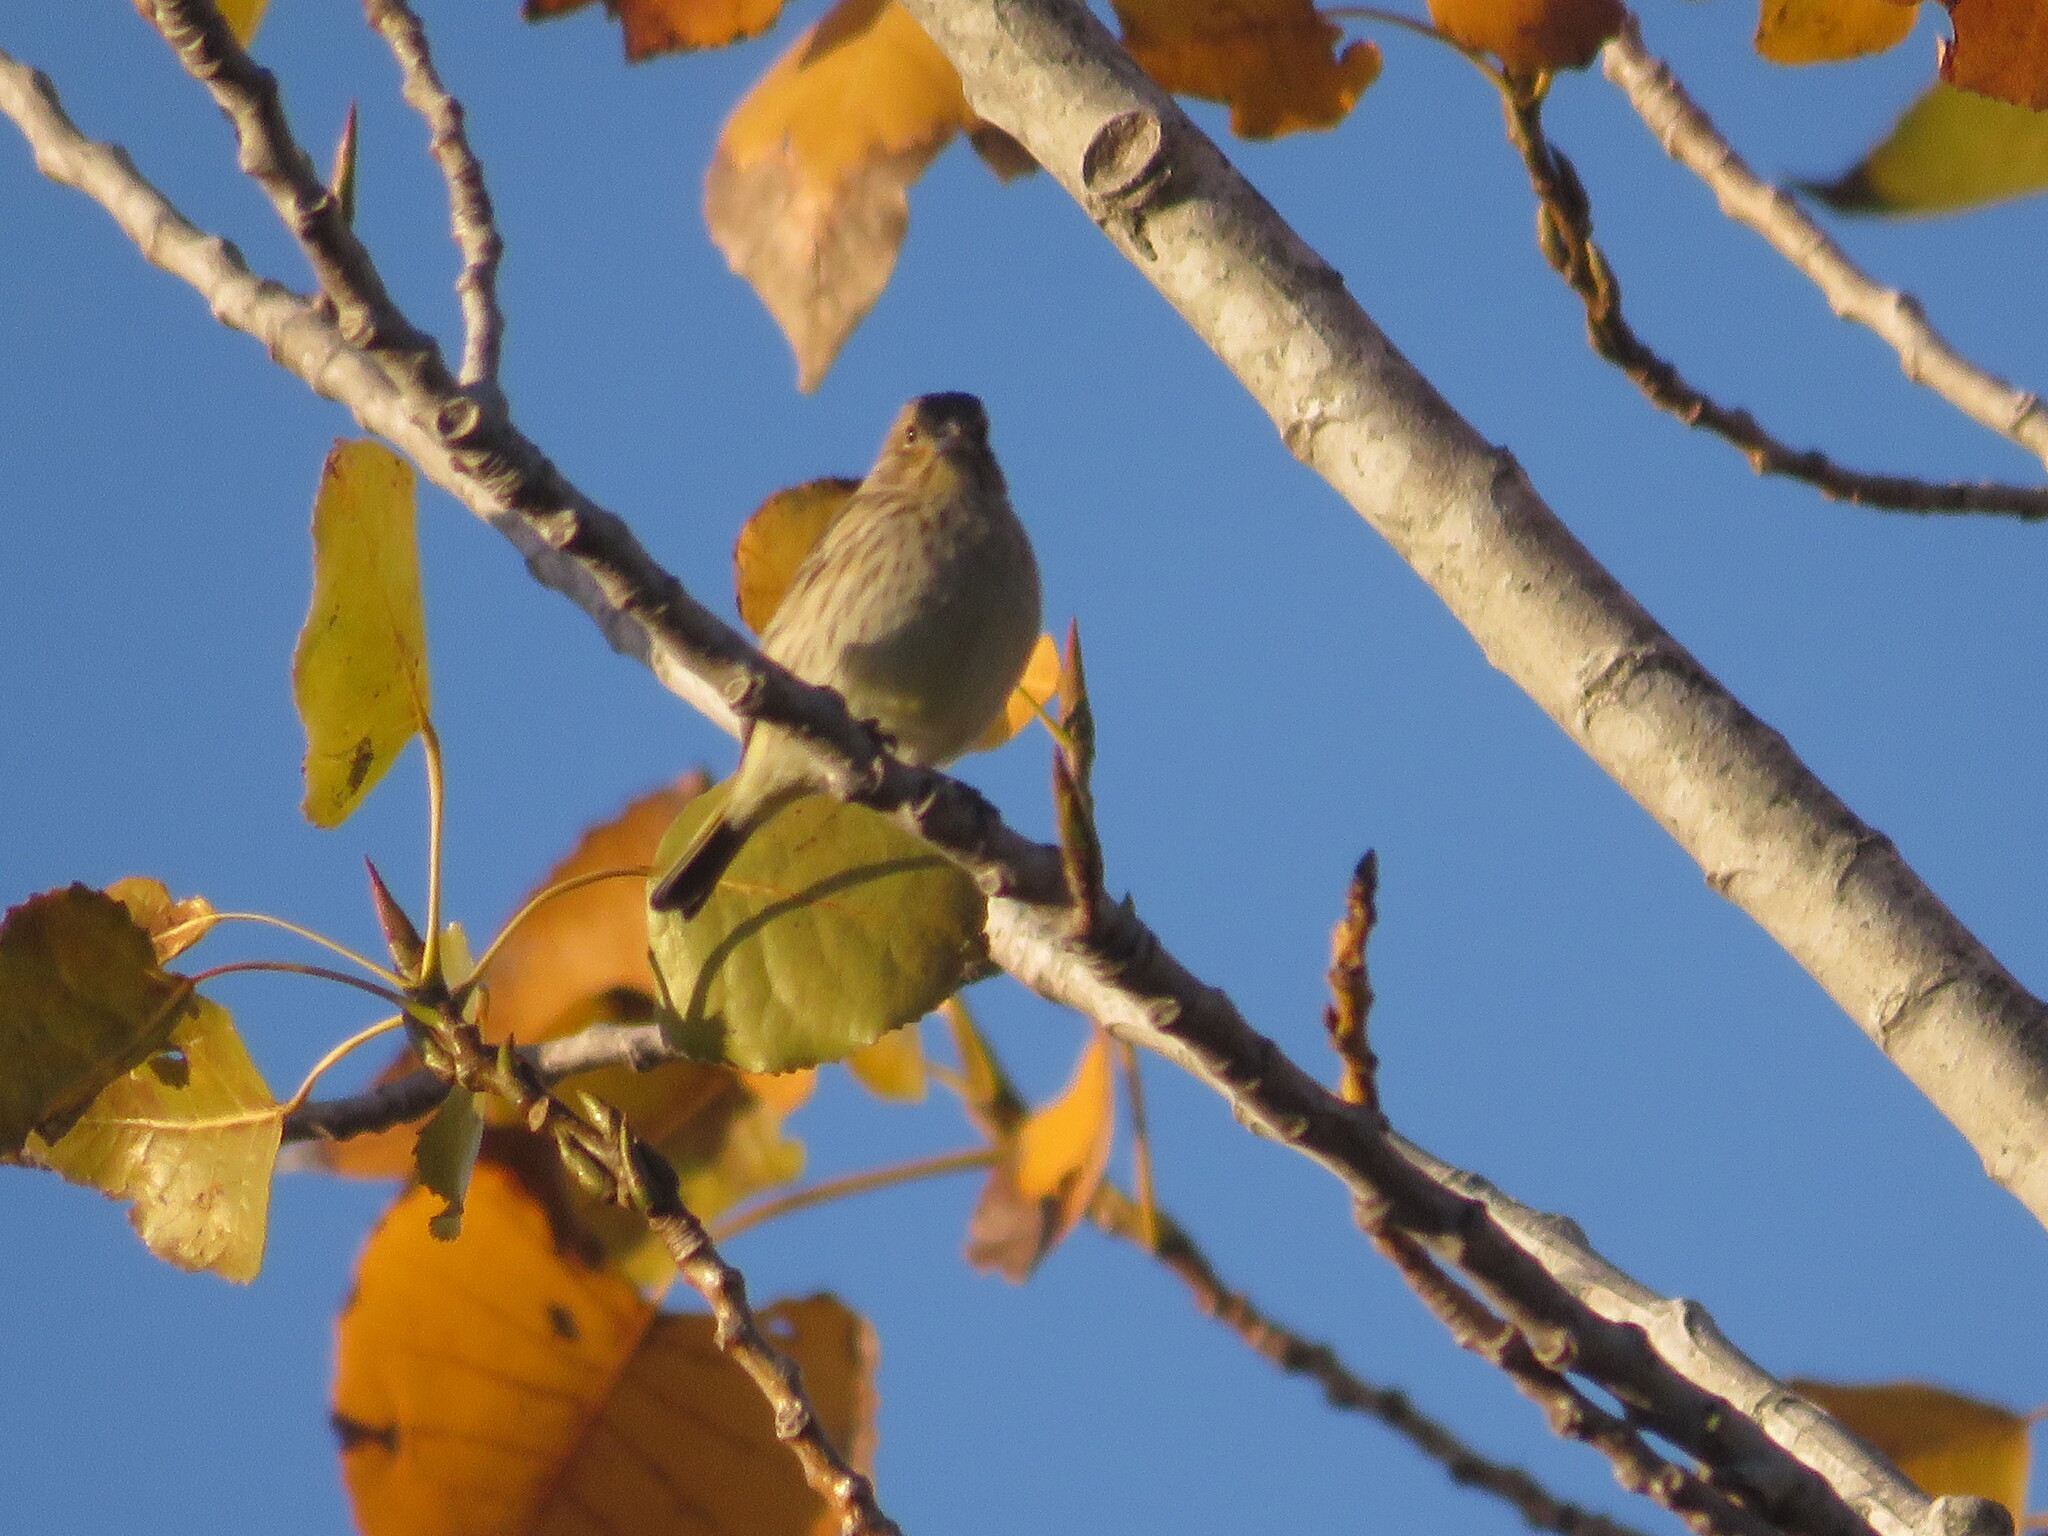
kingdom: Animalia
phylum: Chordata
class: Aves
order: Passeriformes
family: Thraupidae
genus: Sicalis
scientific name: Sicalis flaveola
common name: Saffron finch
